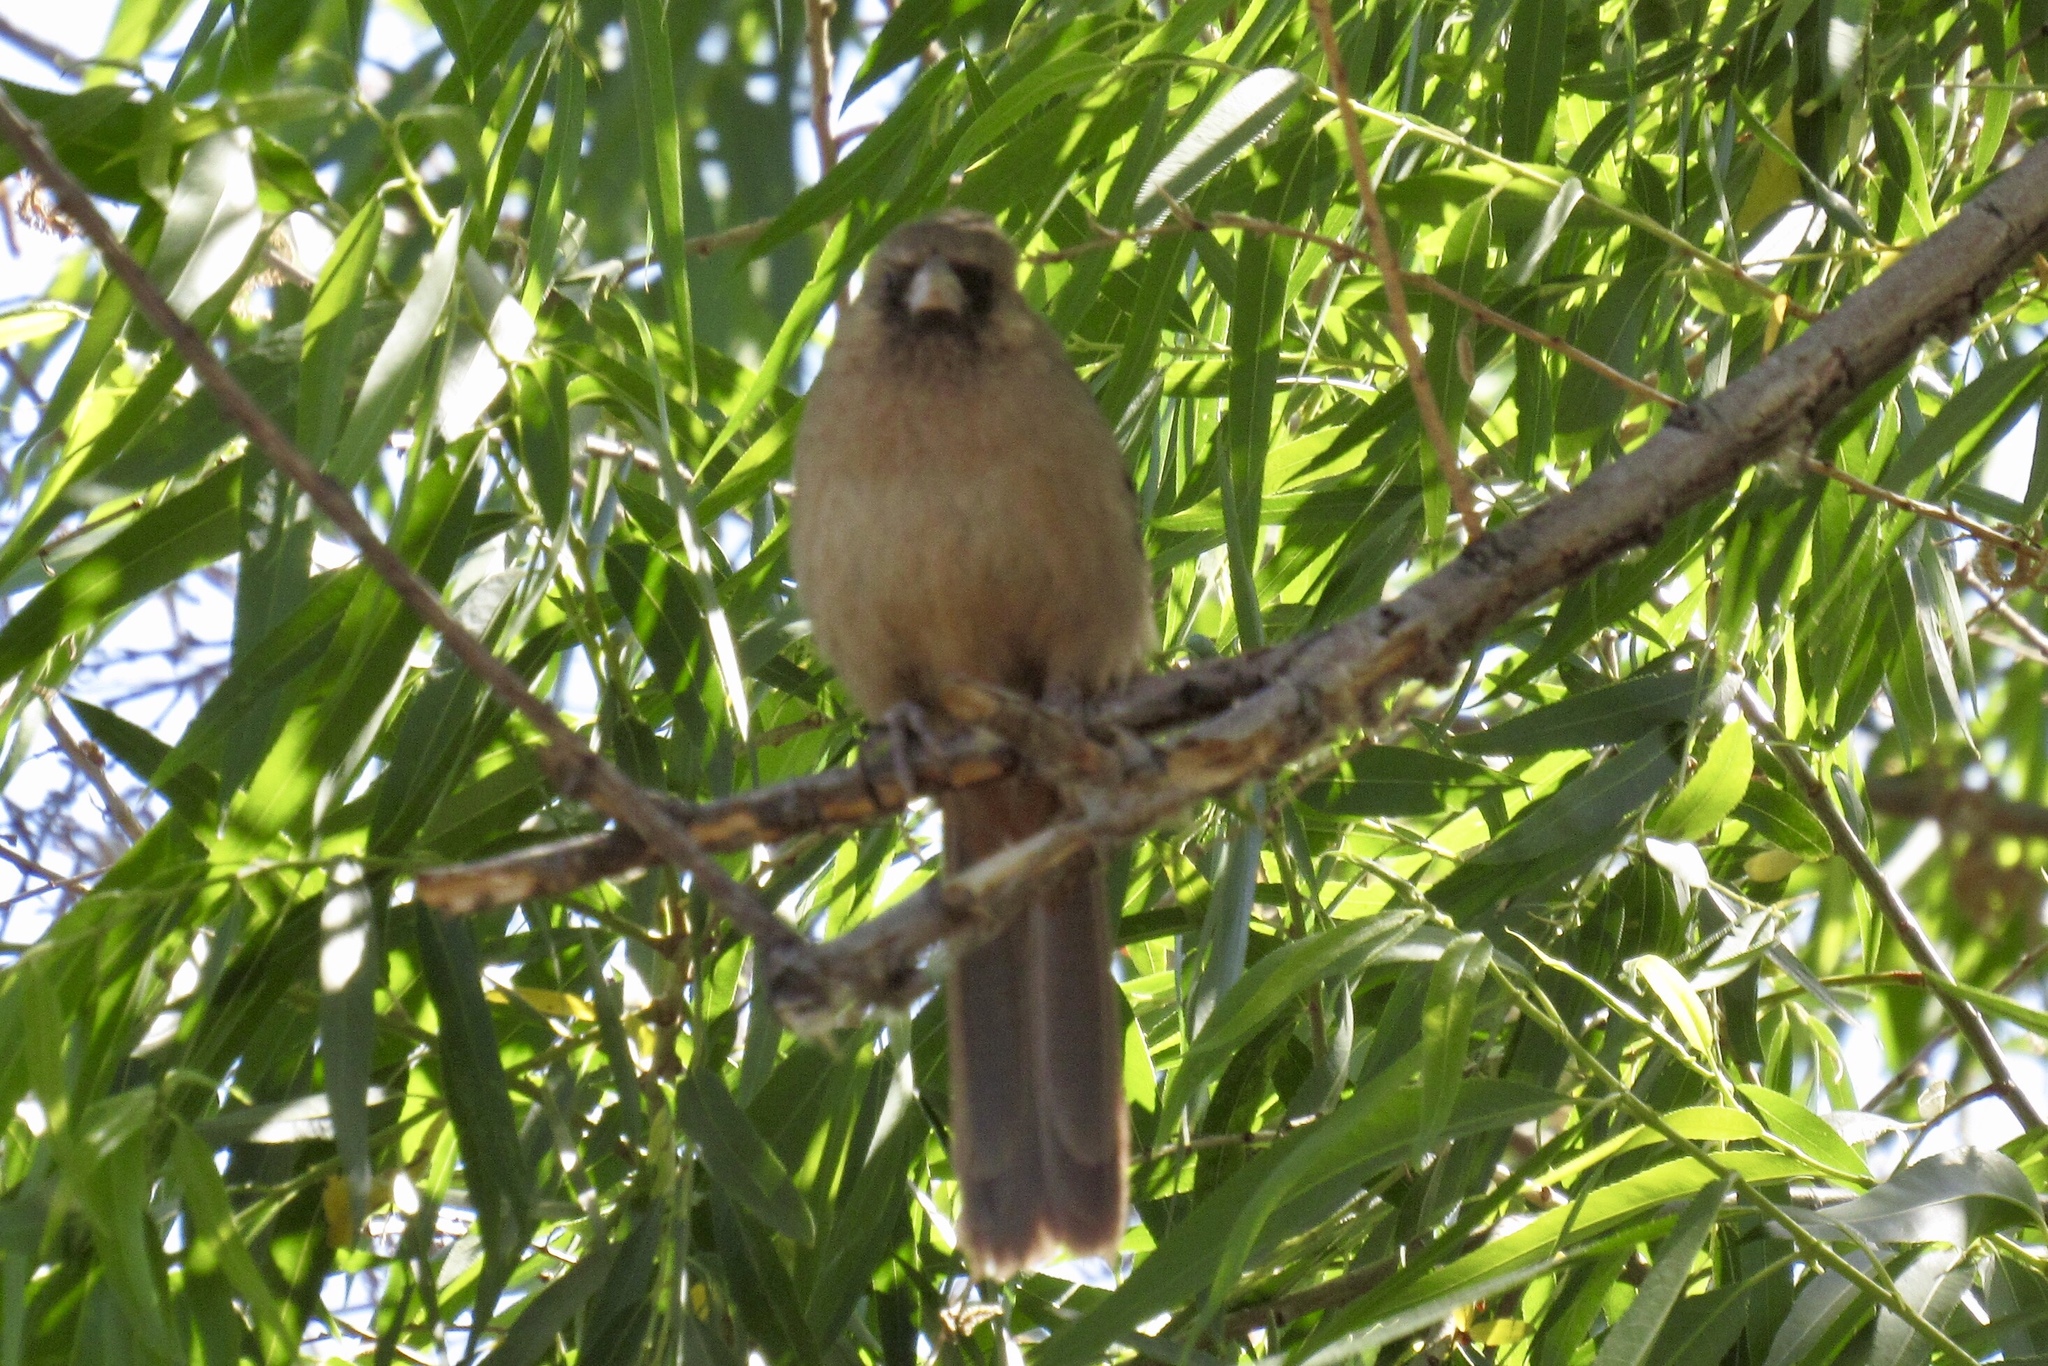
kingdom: Animalia
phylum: Chordata
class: Aves
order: Passeriformes
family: Passerellidae
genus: Melozone
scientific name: Melozone aberti
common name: Abert's towhee
